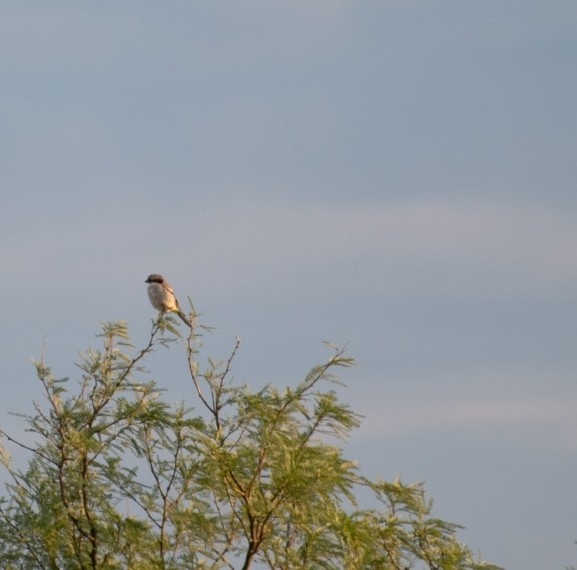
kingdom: Animalia
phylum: Chordata
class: Aves
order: Passeriformes
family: Laniidae
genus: Lanius
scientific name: Lanius ludovicianus
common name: Loggerhead shrike
